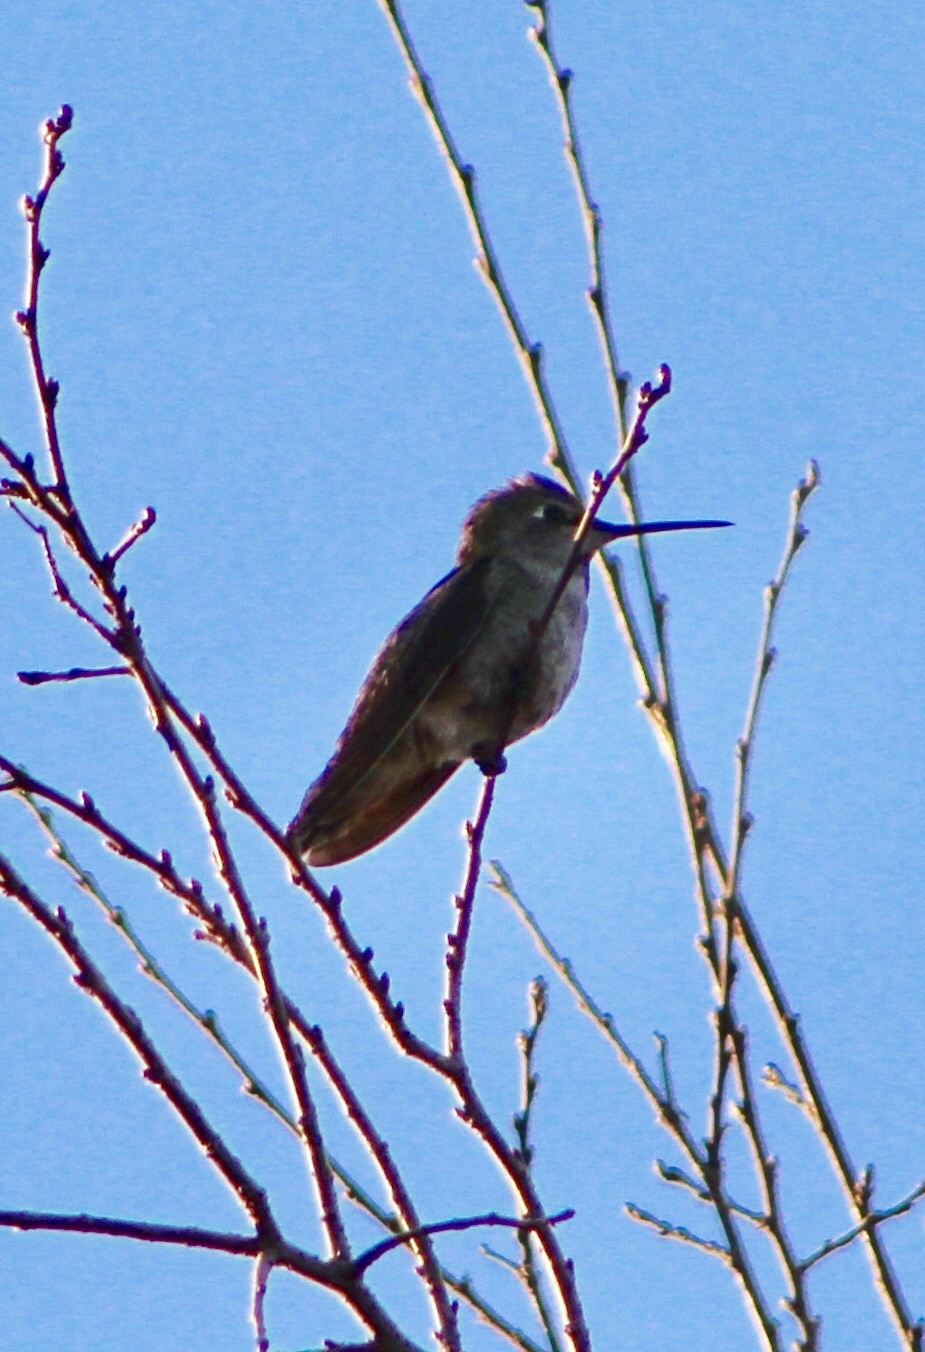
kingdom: Animalia
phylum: Chordata
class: Aves
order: Apodiformes
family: Trochilidae
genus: Calypte
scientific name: Calypte anna
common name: Anna's hummingbird
